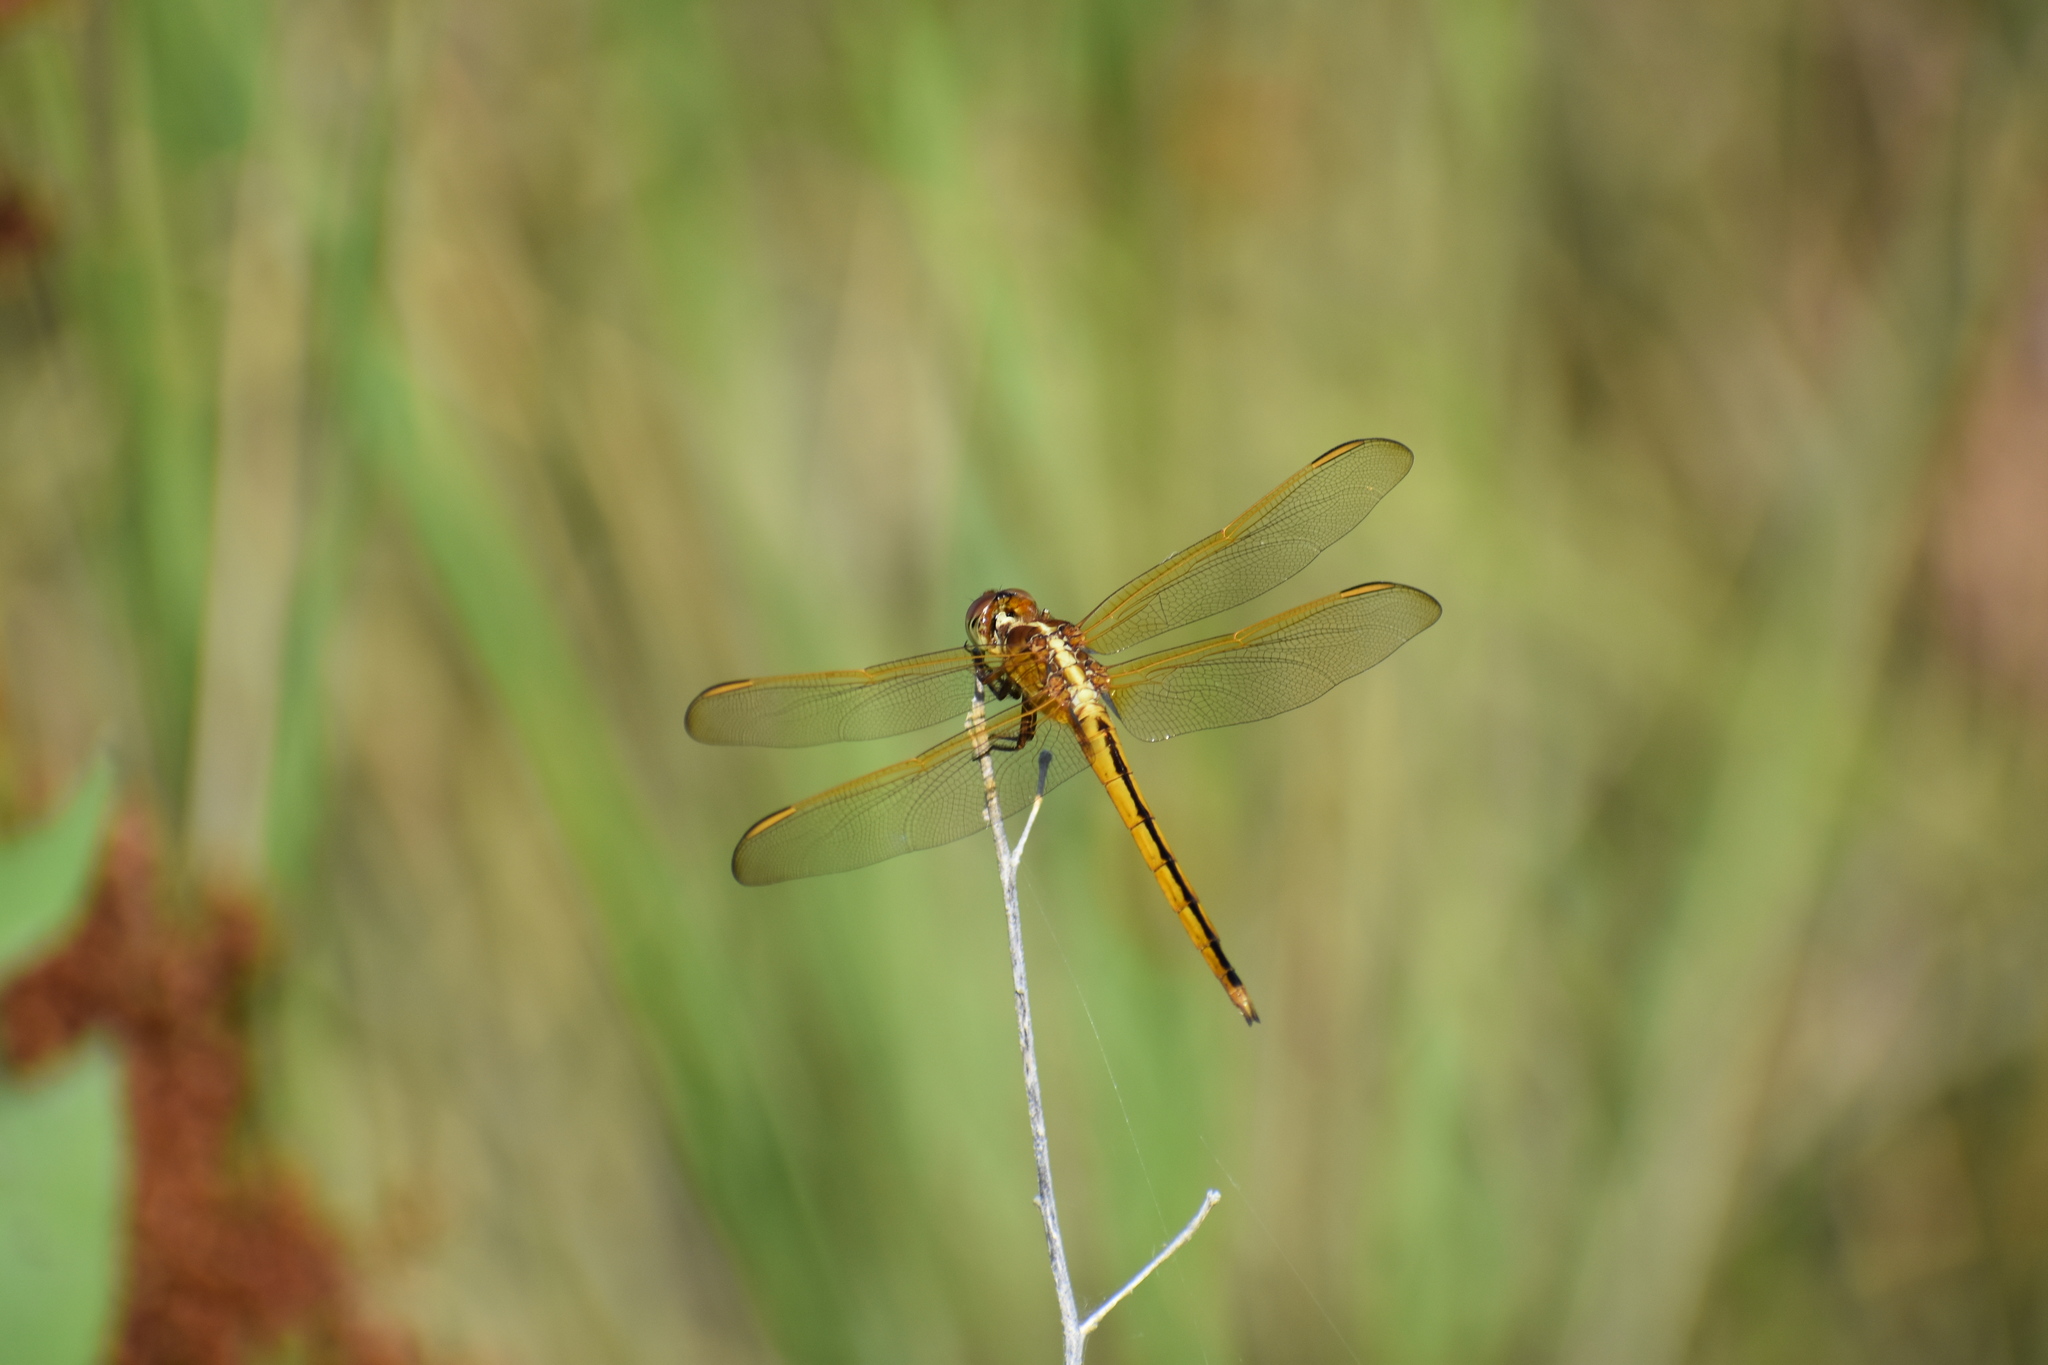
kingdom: Animalia
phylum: Arthropoda
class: Insecta
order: Odonata
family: Libellulidae
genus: Libellula
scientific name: Libellula needhami
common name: Needham's skimmer
